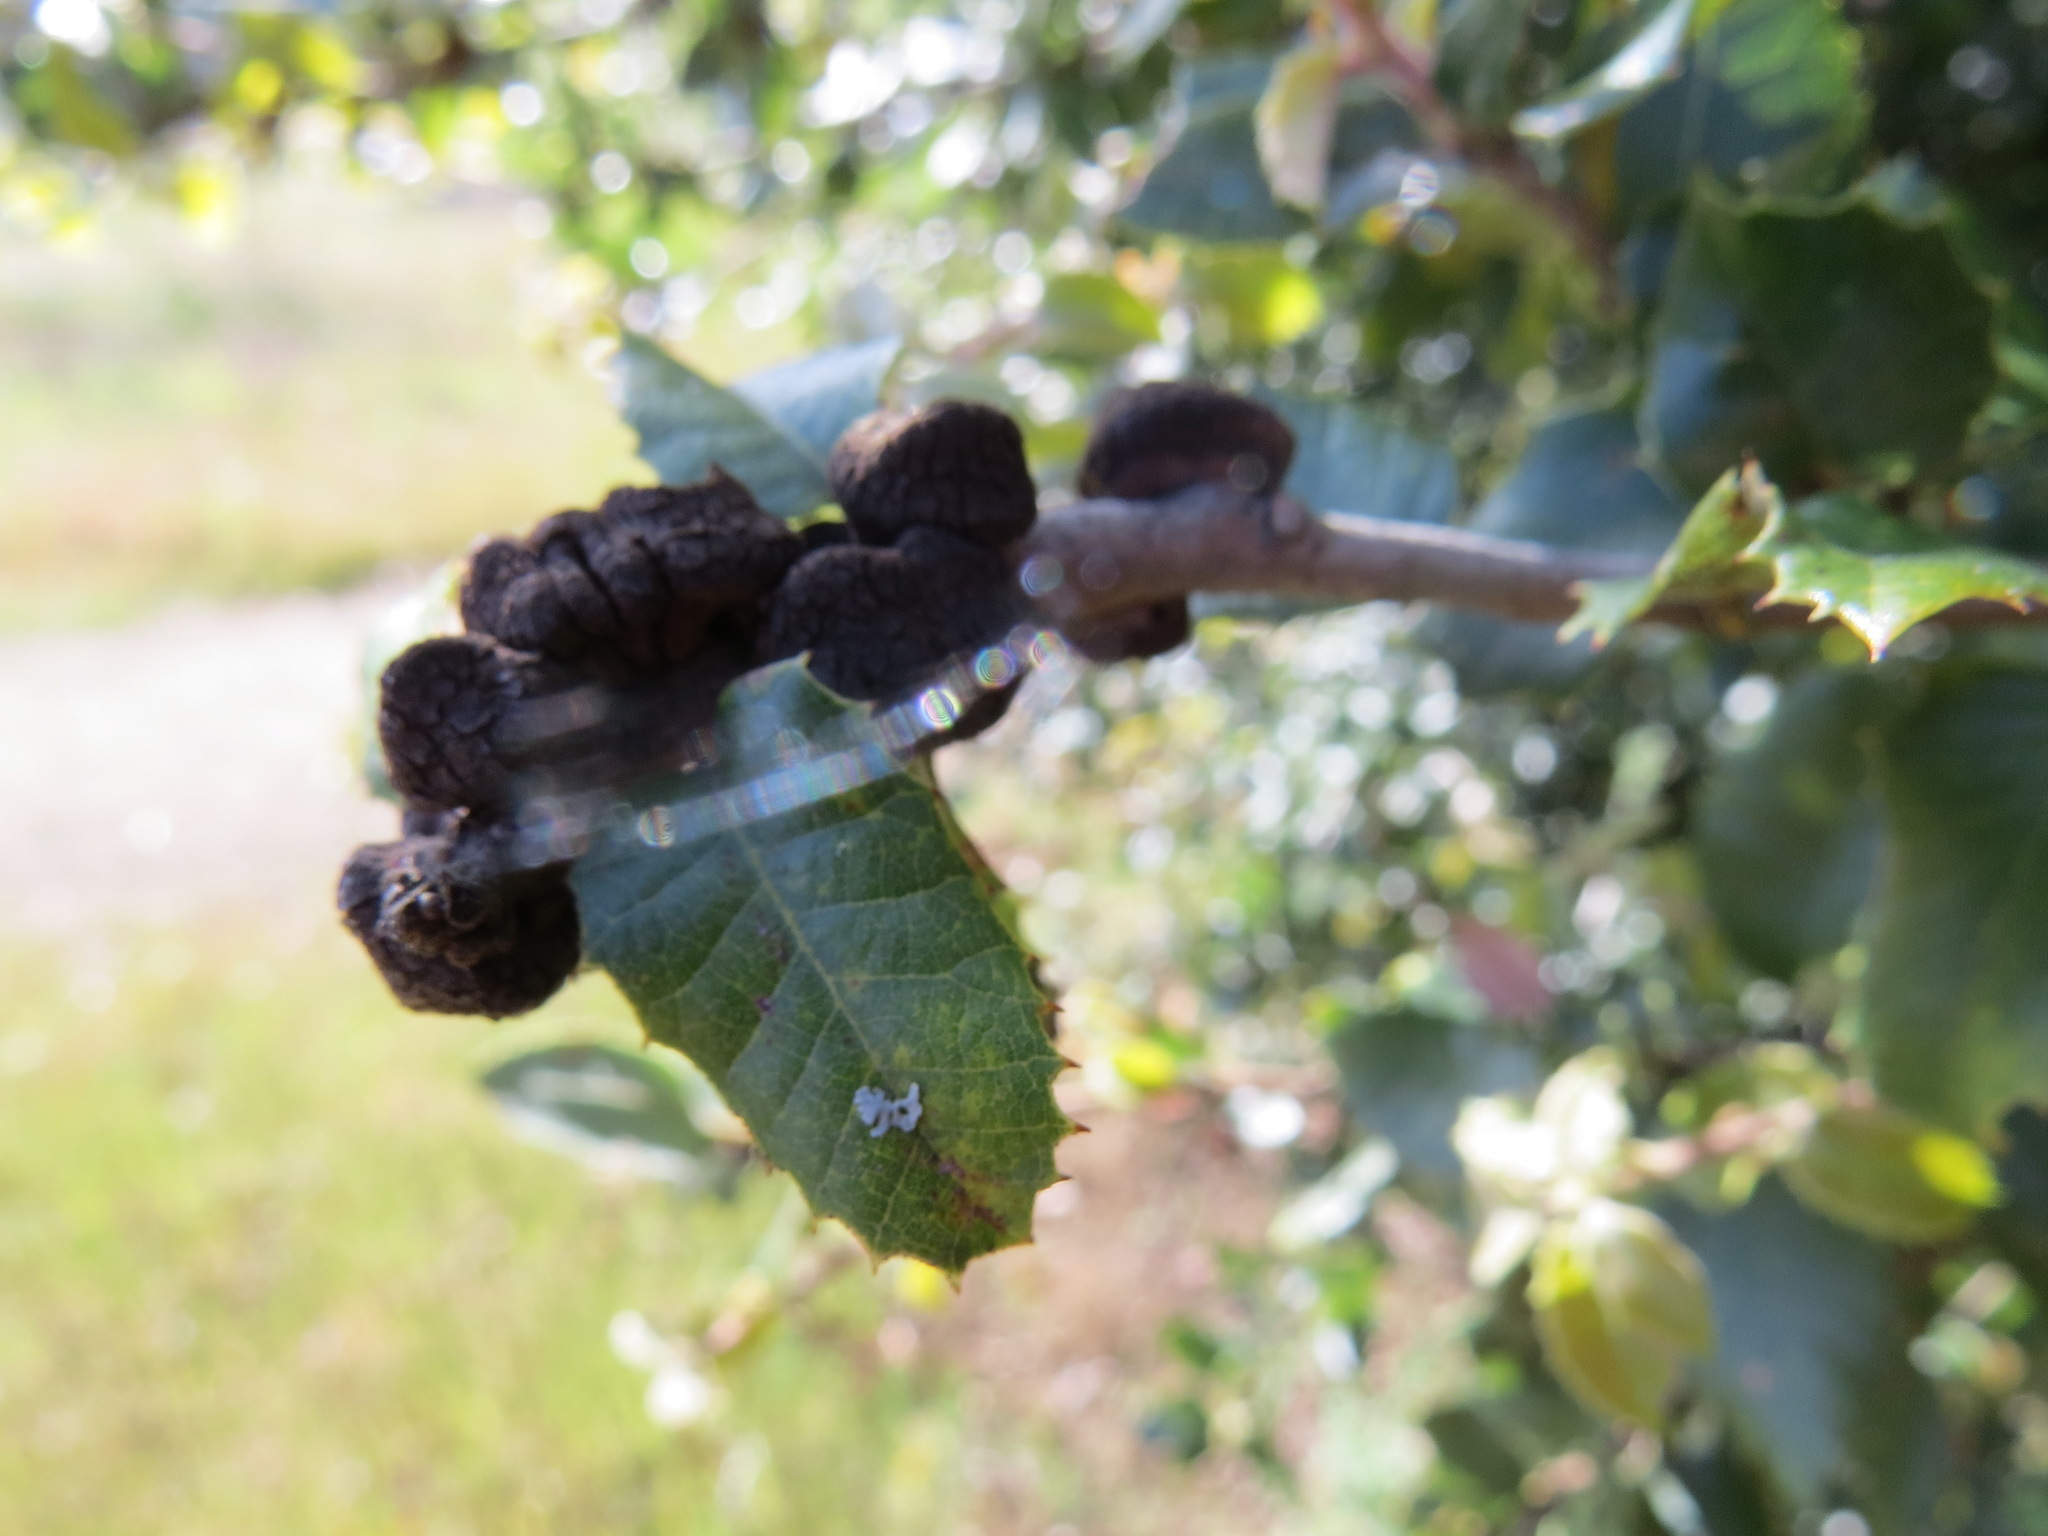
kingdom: Animalia
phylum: Arthropoda
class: Insecta
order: Hymenoptera
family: Cynipidae
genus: Disholandricus
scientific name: Disholandricus
